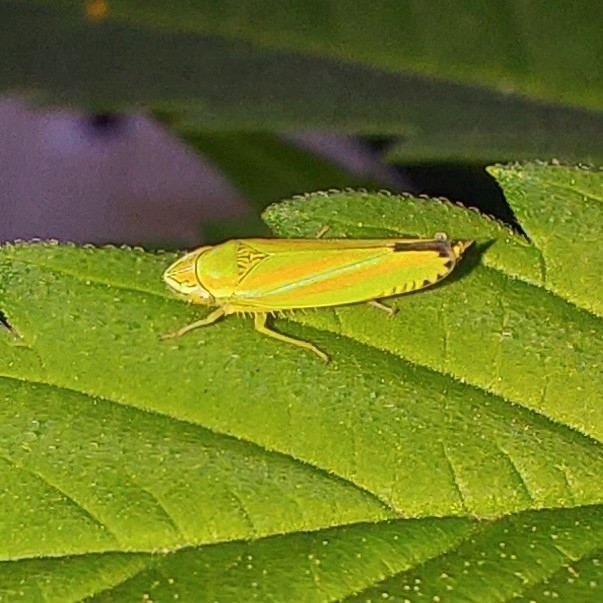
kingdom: Animalia
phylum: Arthropoda
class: Insecta
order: Hemiptera
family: Cicadellidae
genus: Graphocephala
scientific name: Graphocephala versuta
